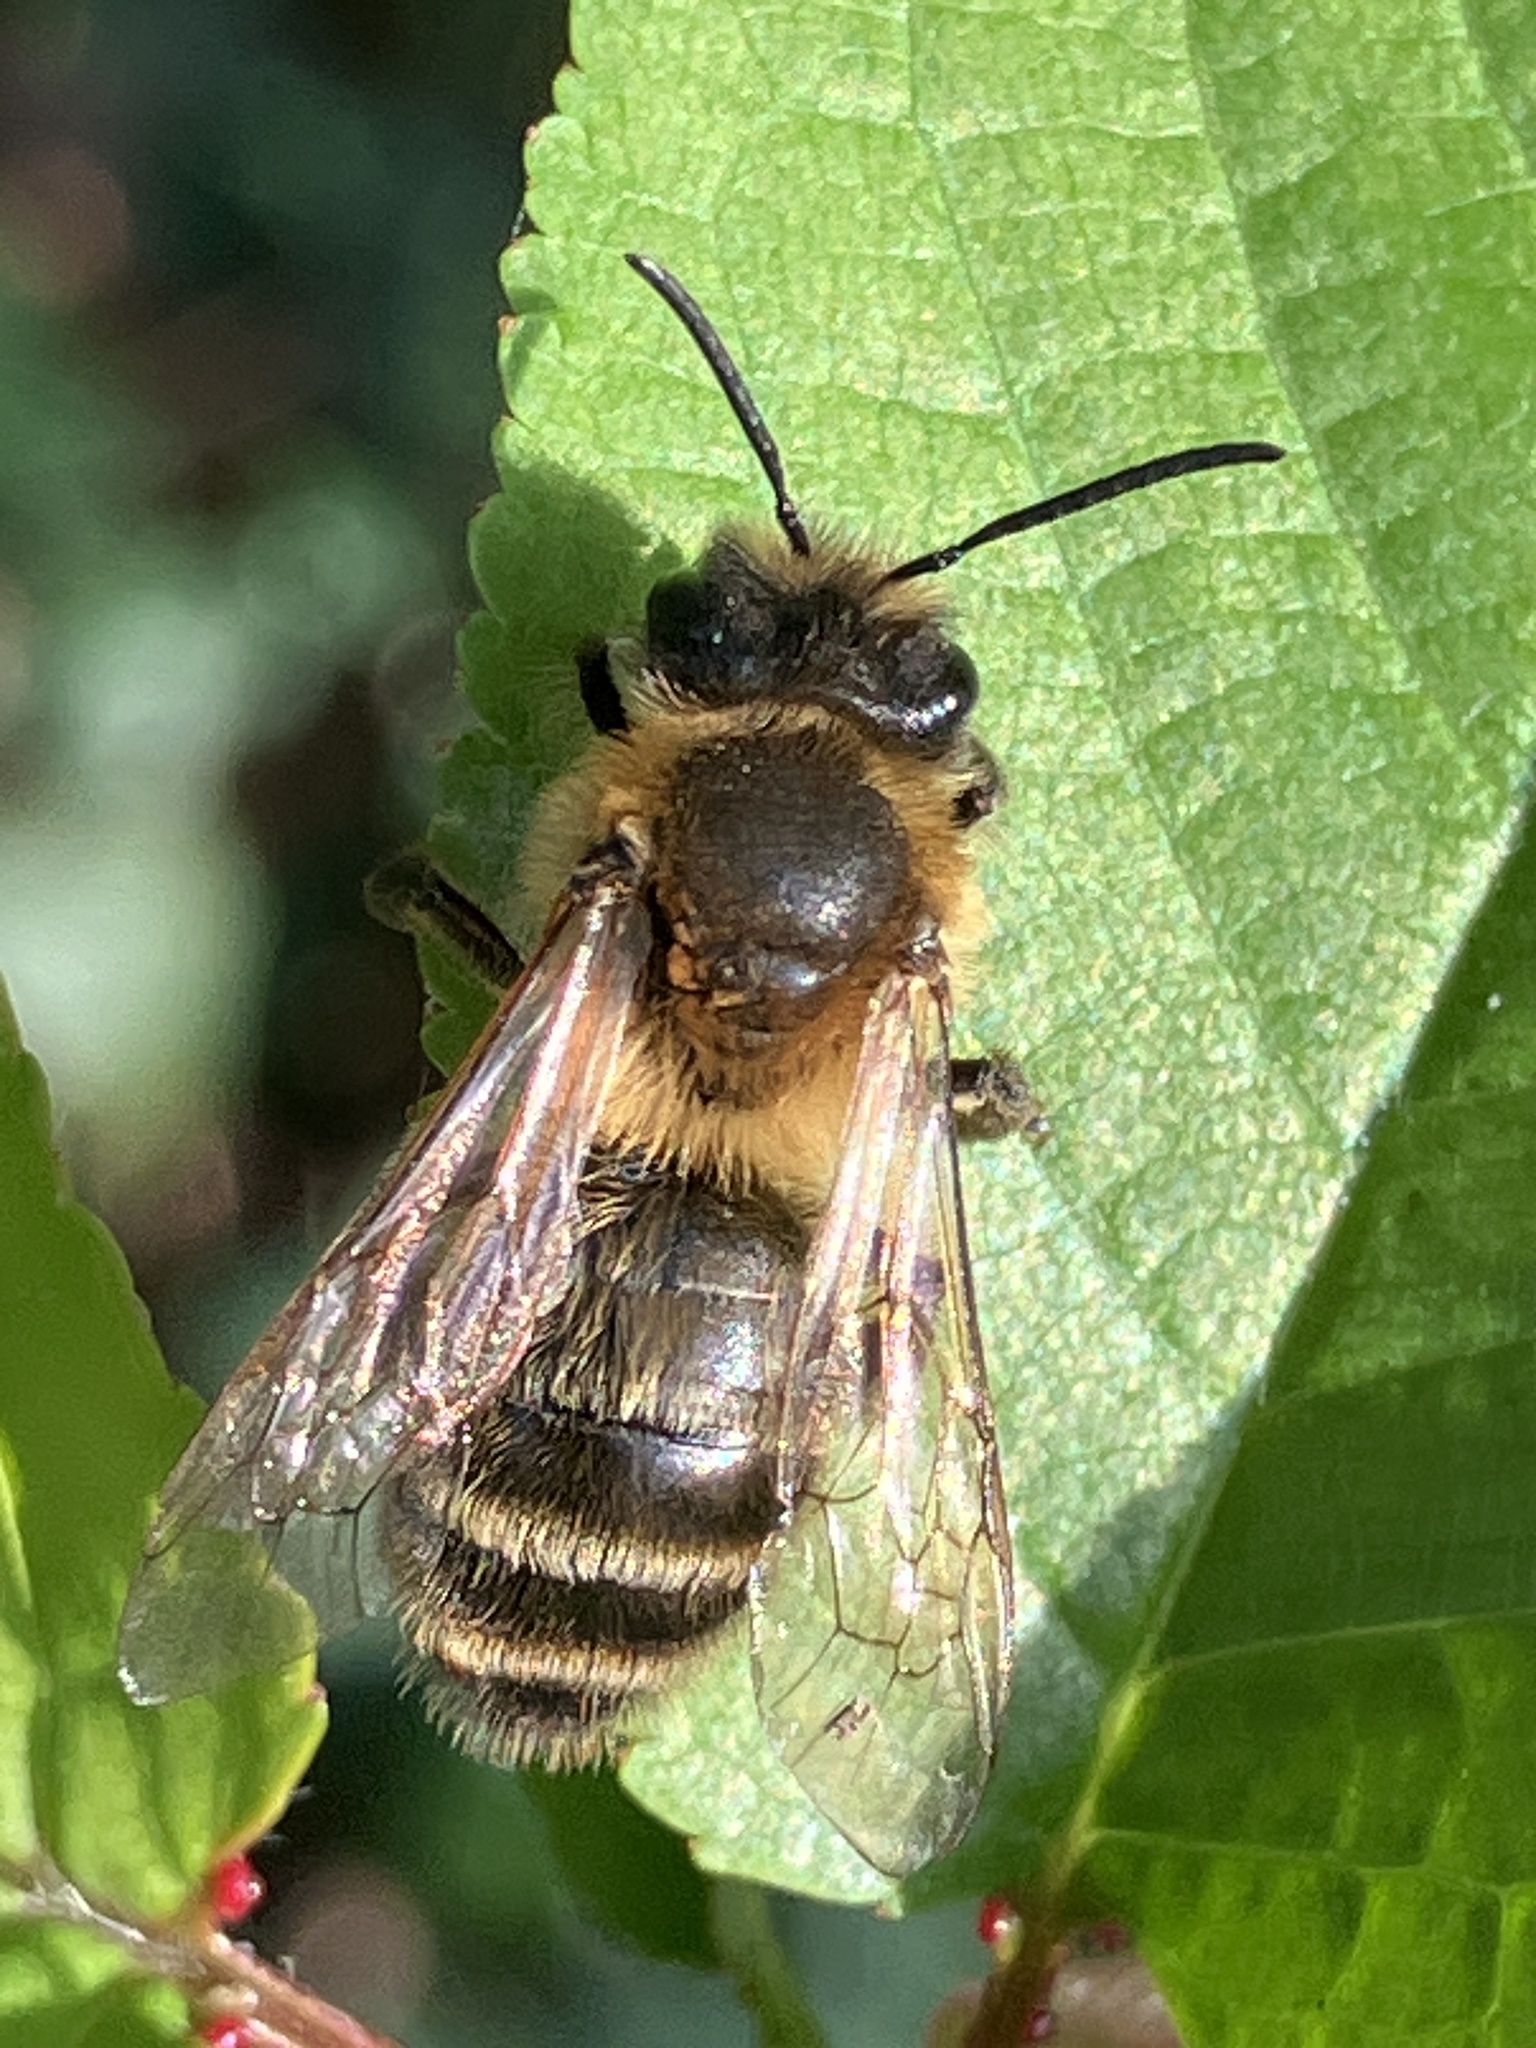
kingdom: Animalia
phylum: Arthropoda
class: Insecta
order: Hymenoptera
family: Andrenidae
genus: Andrena
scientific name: Andrena carantonica
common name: Chocolate mining bee
